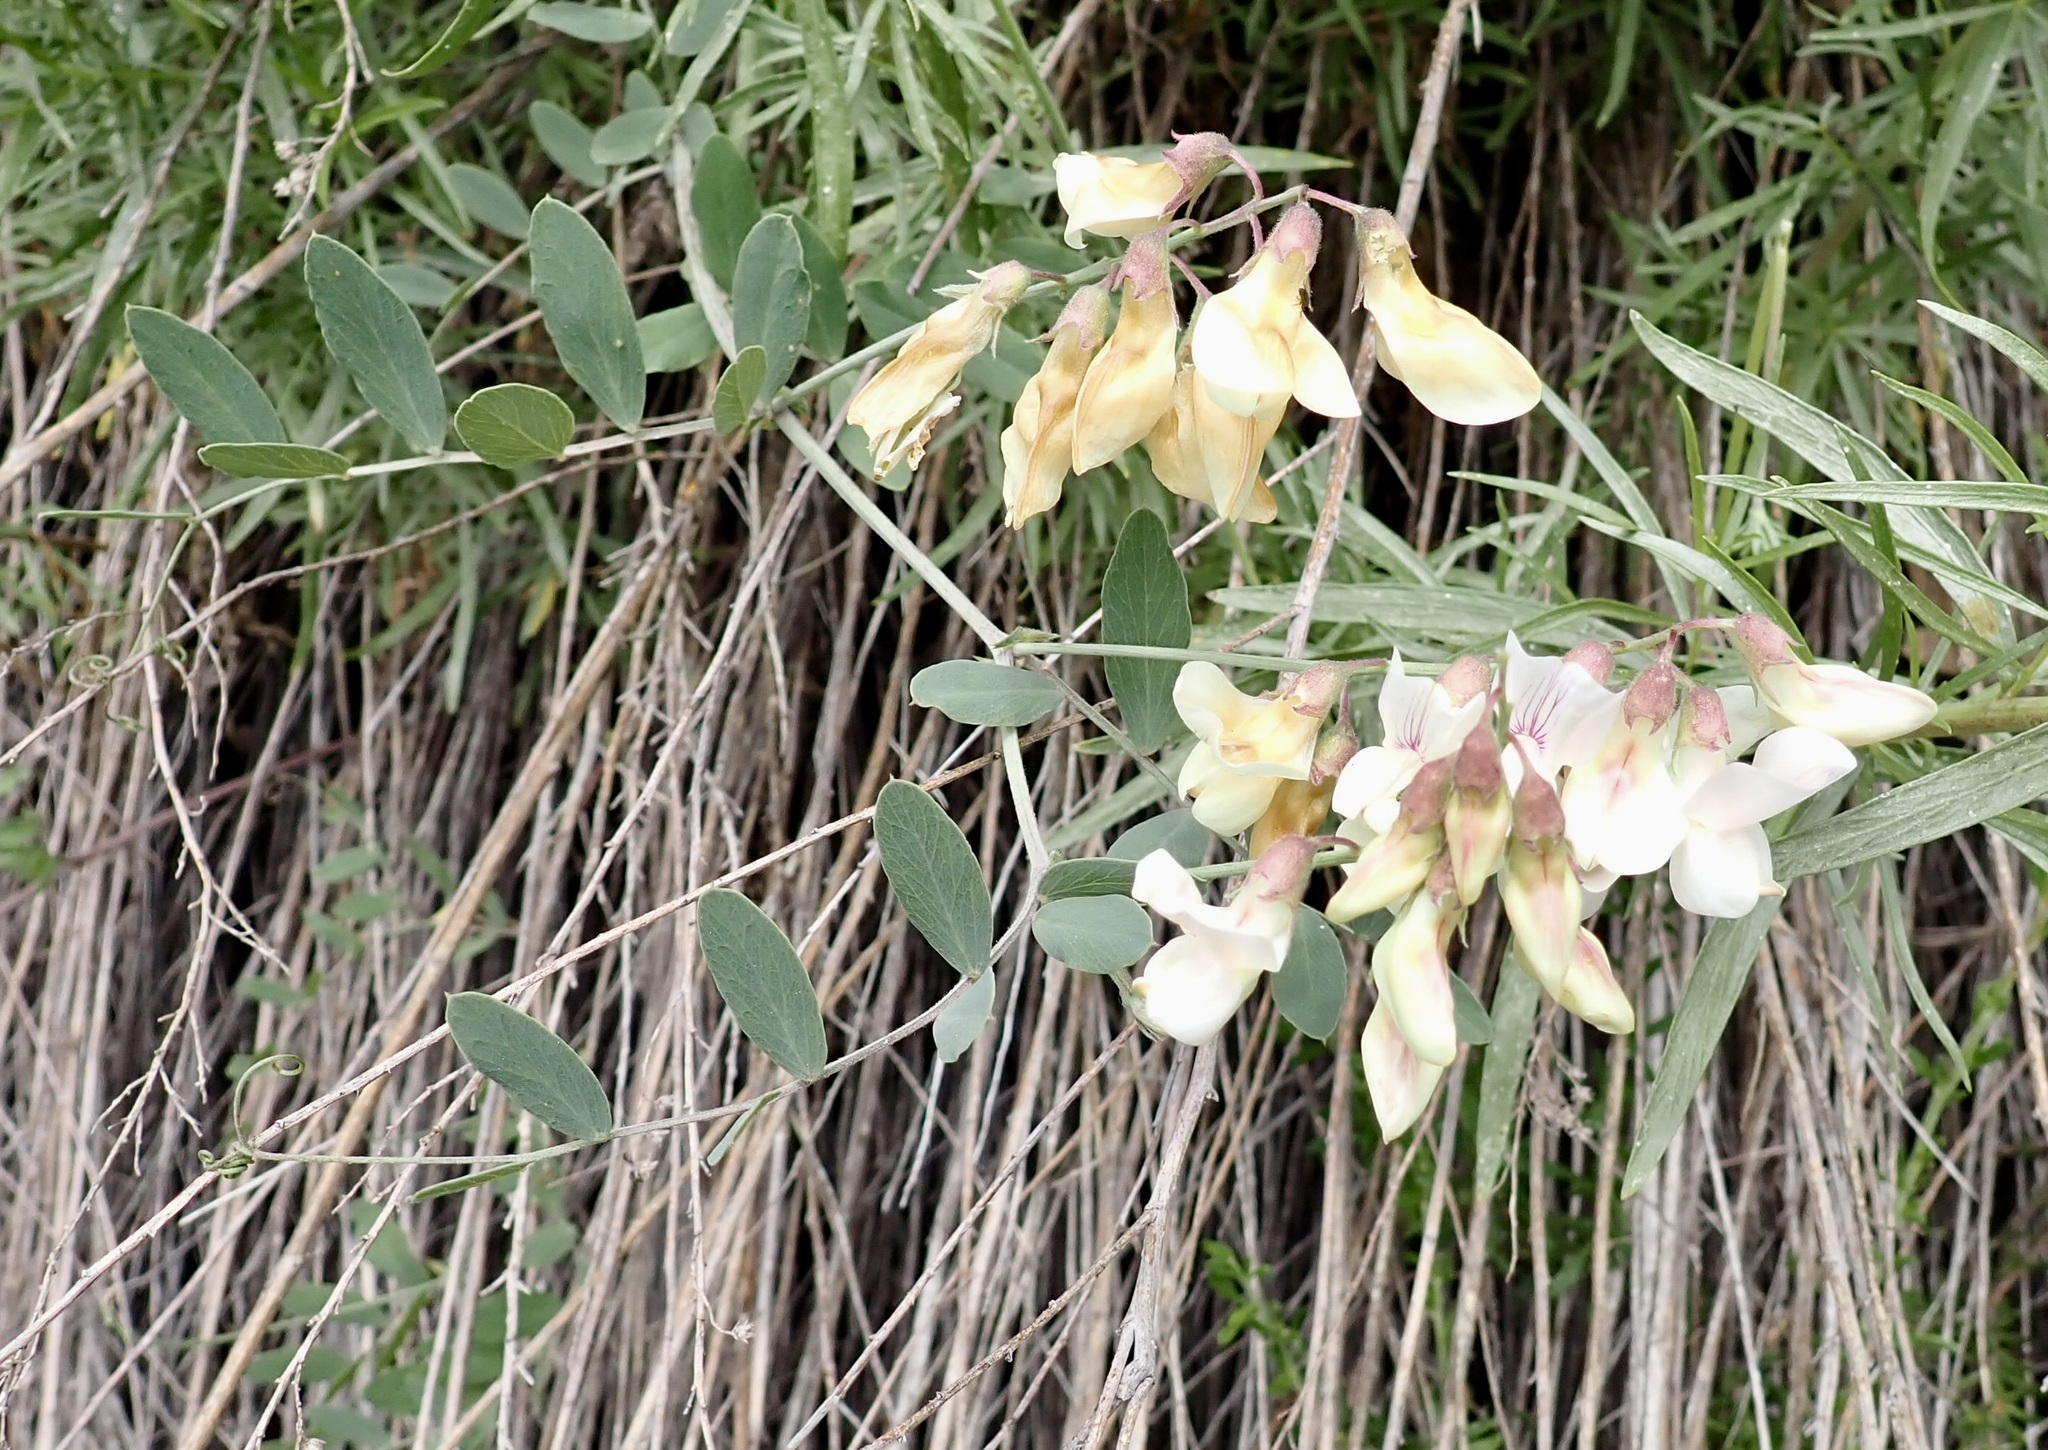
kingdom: Plantae
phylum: Tracheophyta
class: Magnoliopsida
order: Fabales
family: Fabaceae
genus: Lathyrus
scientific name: Lathyrus vestitus
